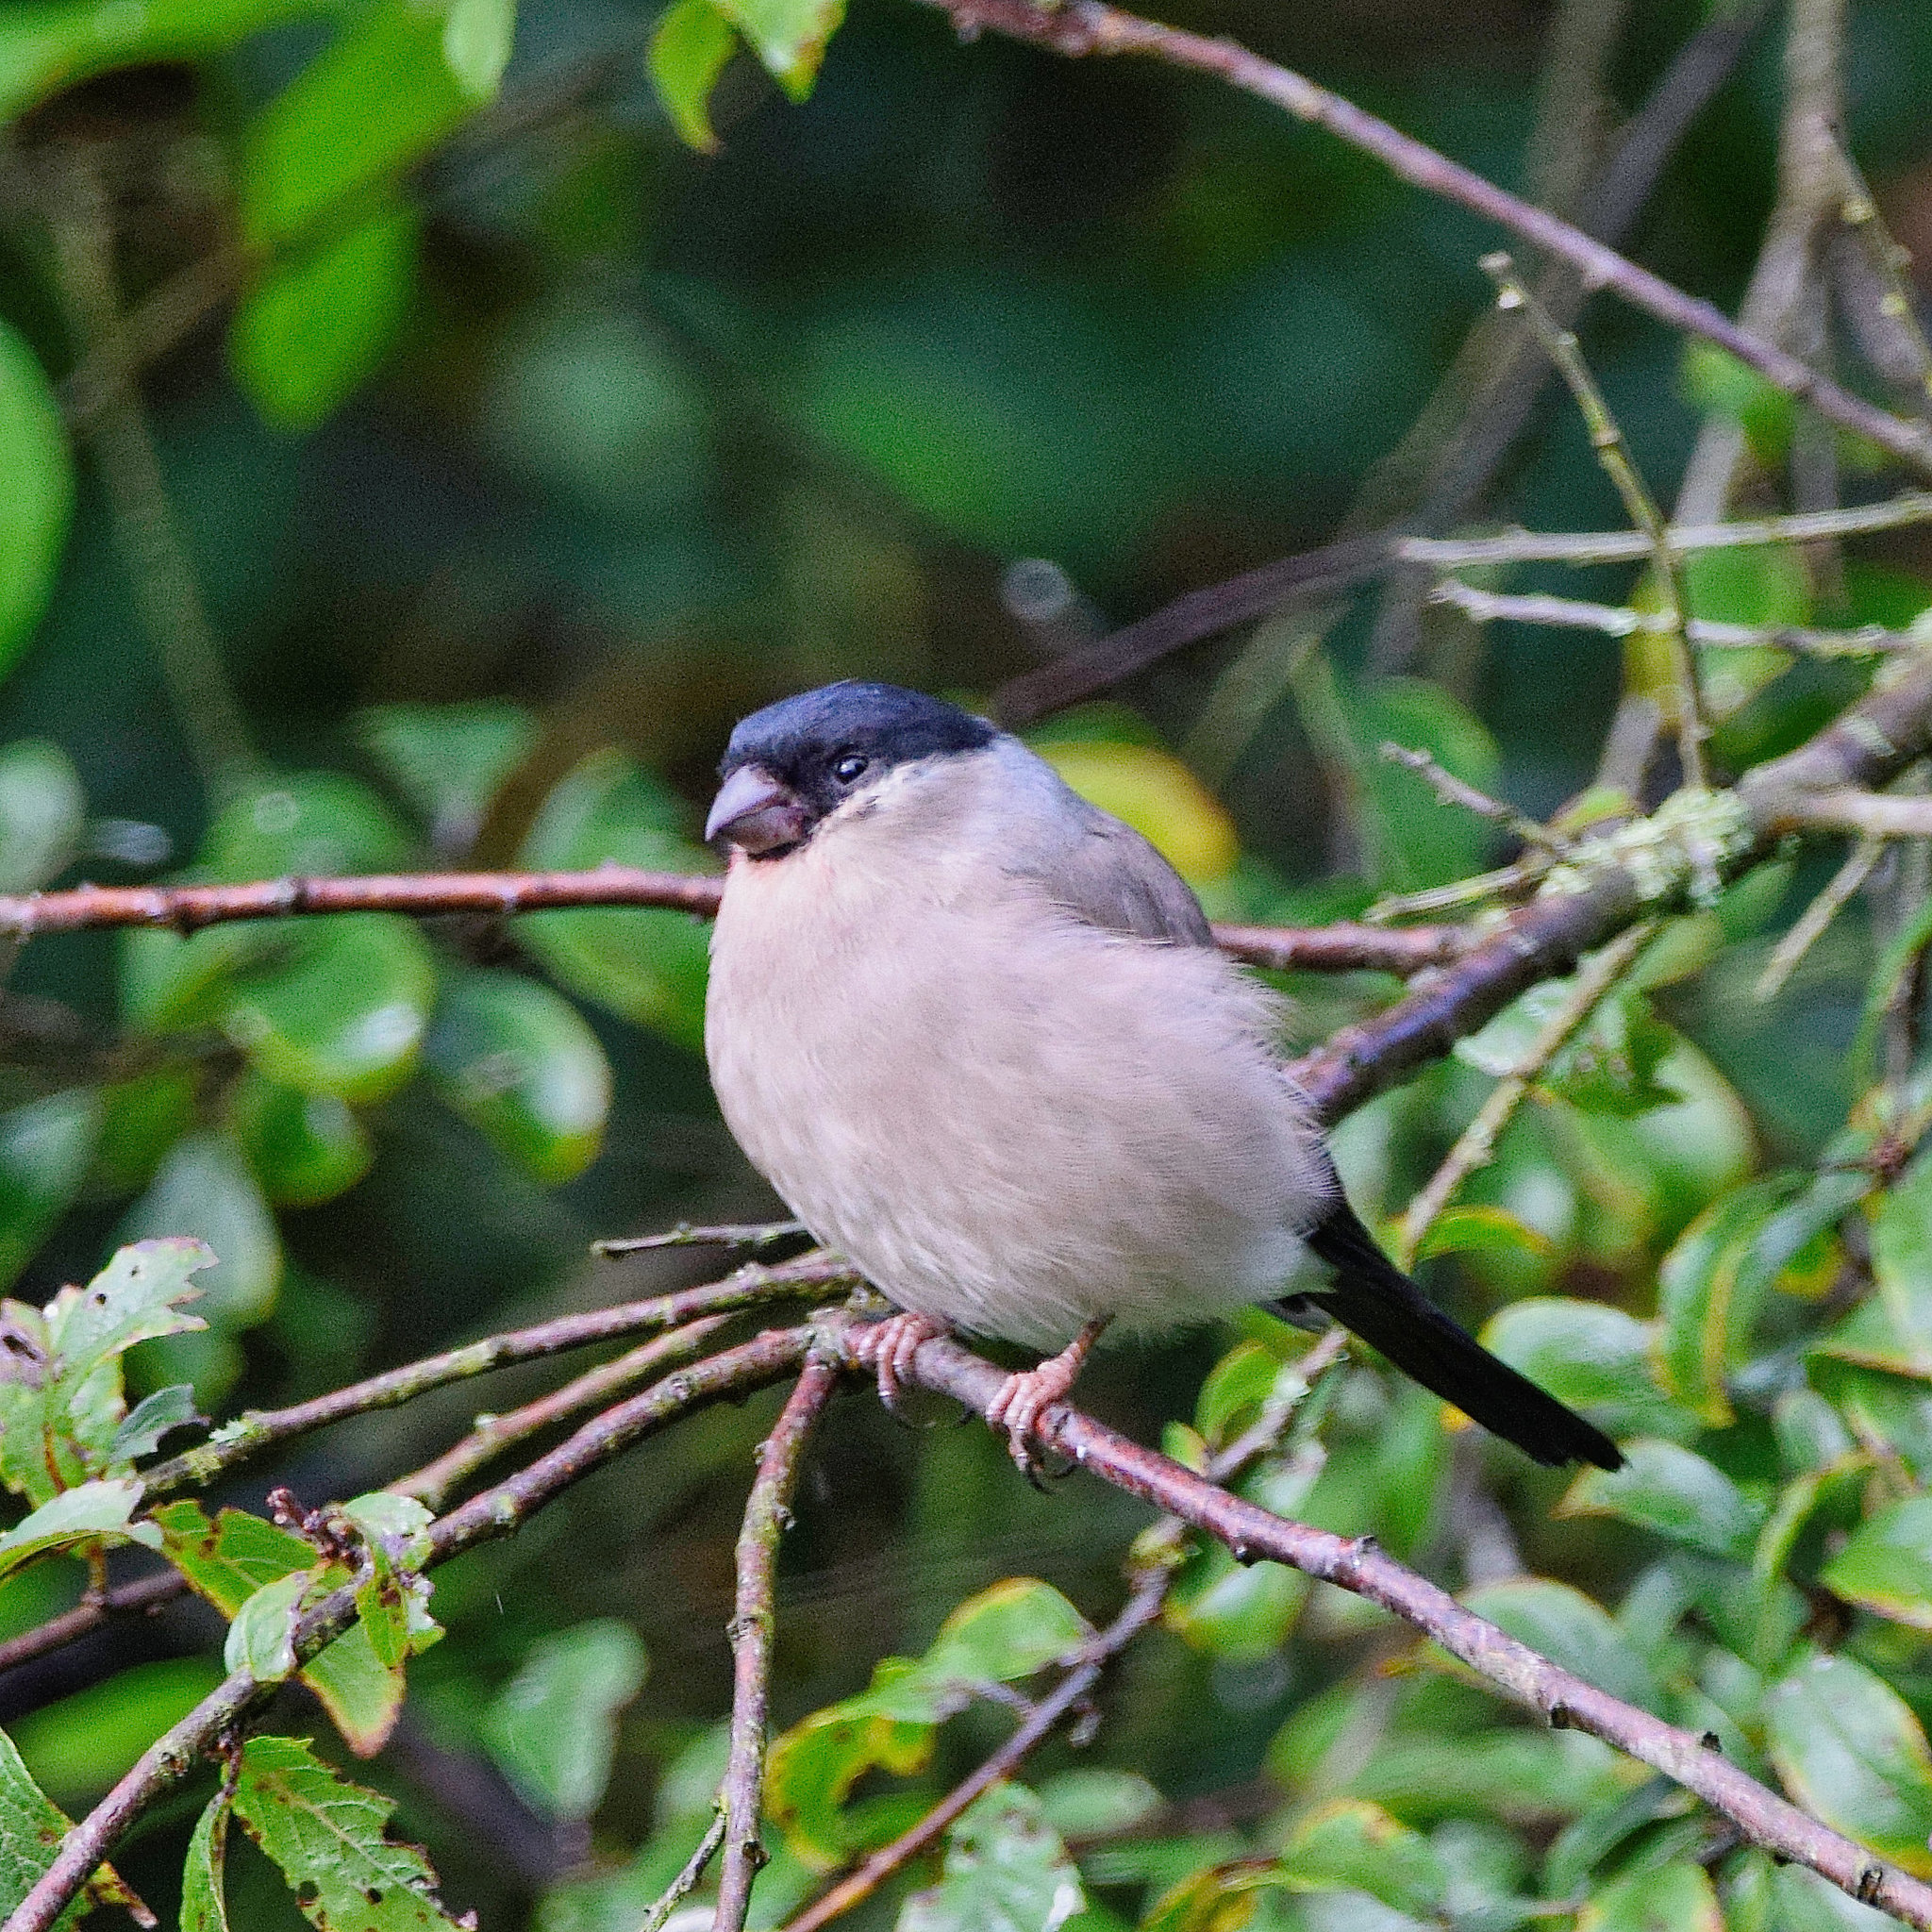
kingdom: Animalia
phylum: Chordata
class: Aves
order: Passeriformes
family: Fringillidae
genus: Pyrrhula
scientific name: Pyrrhula pyrrhula
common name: Eurasian bullfinch
